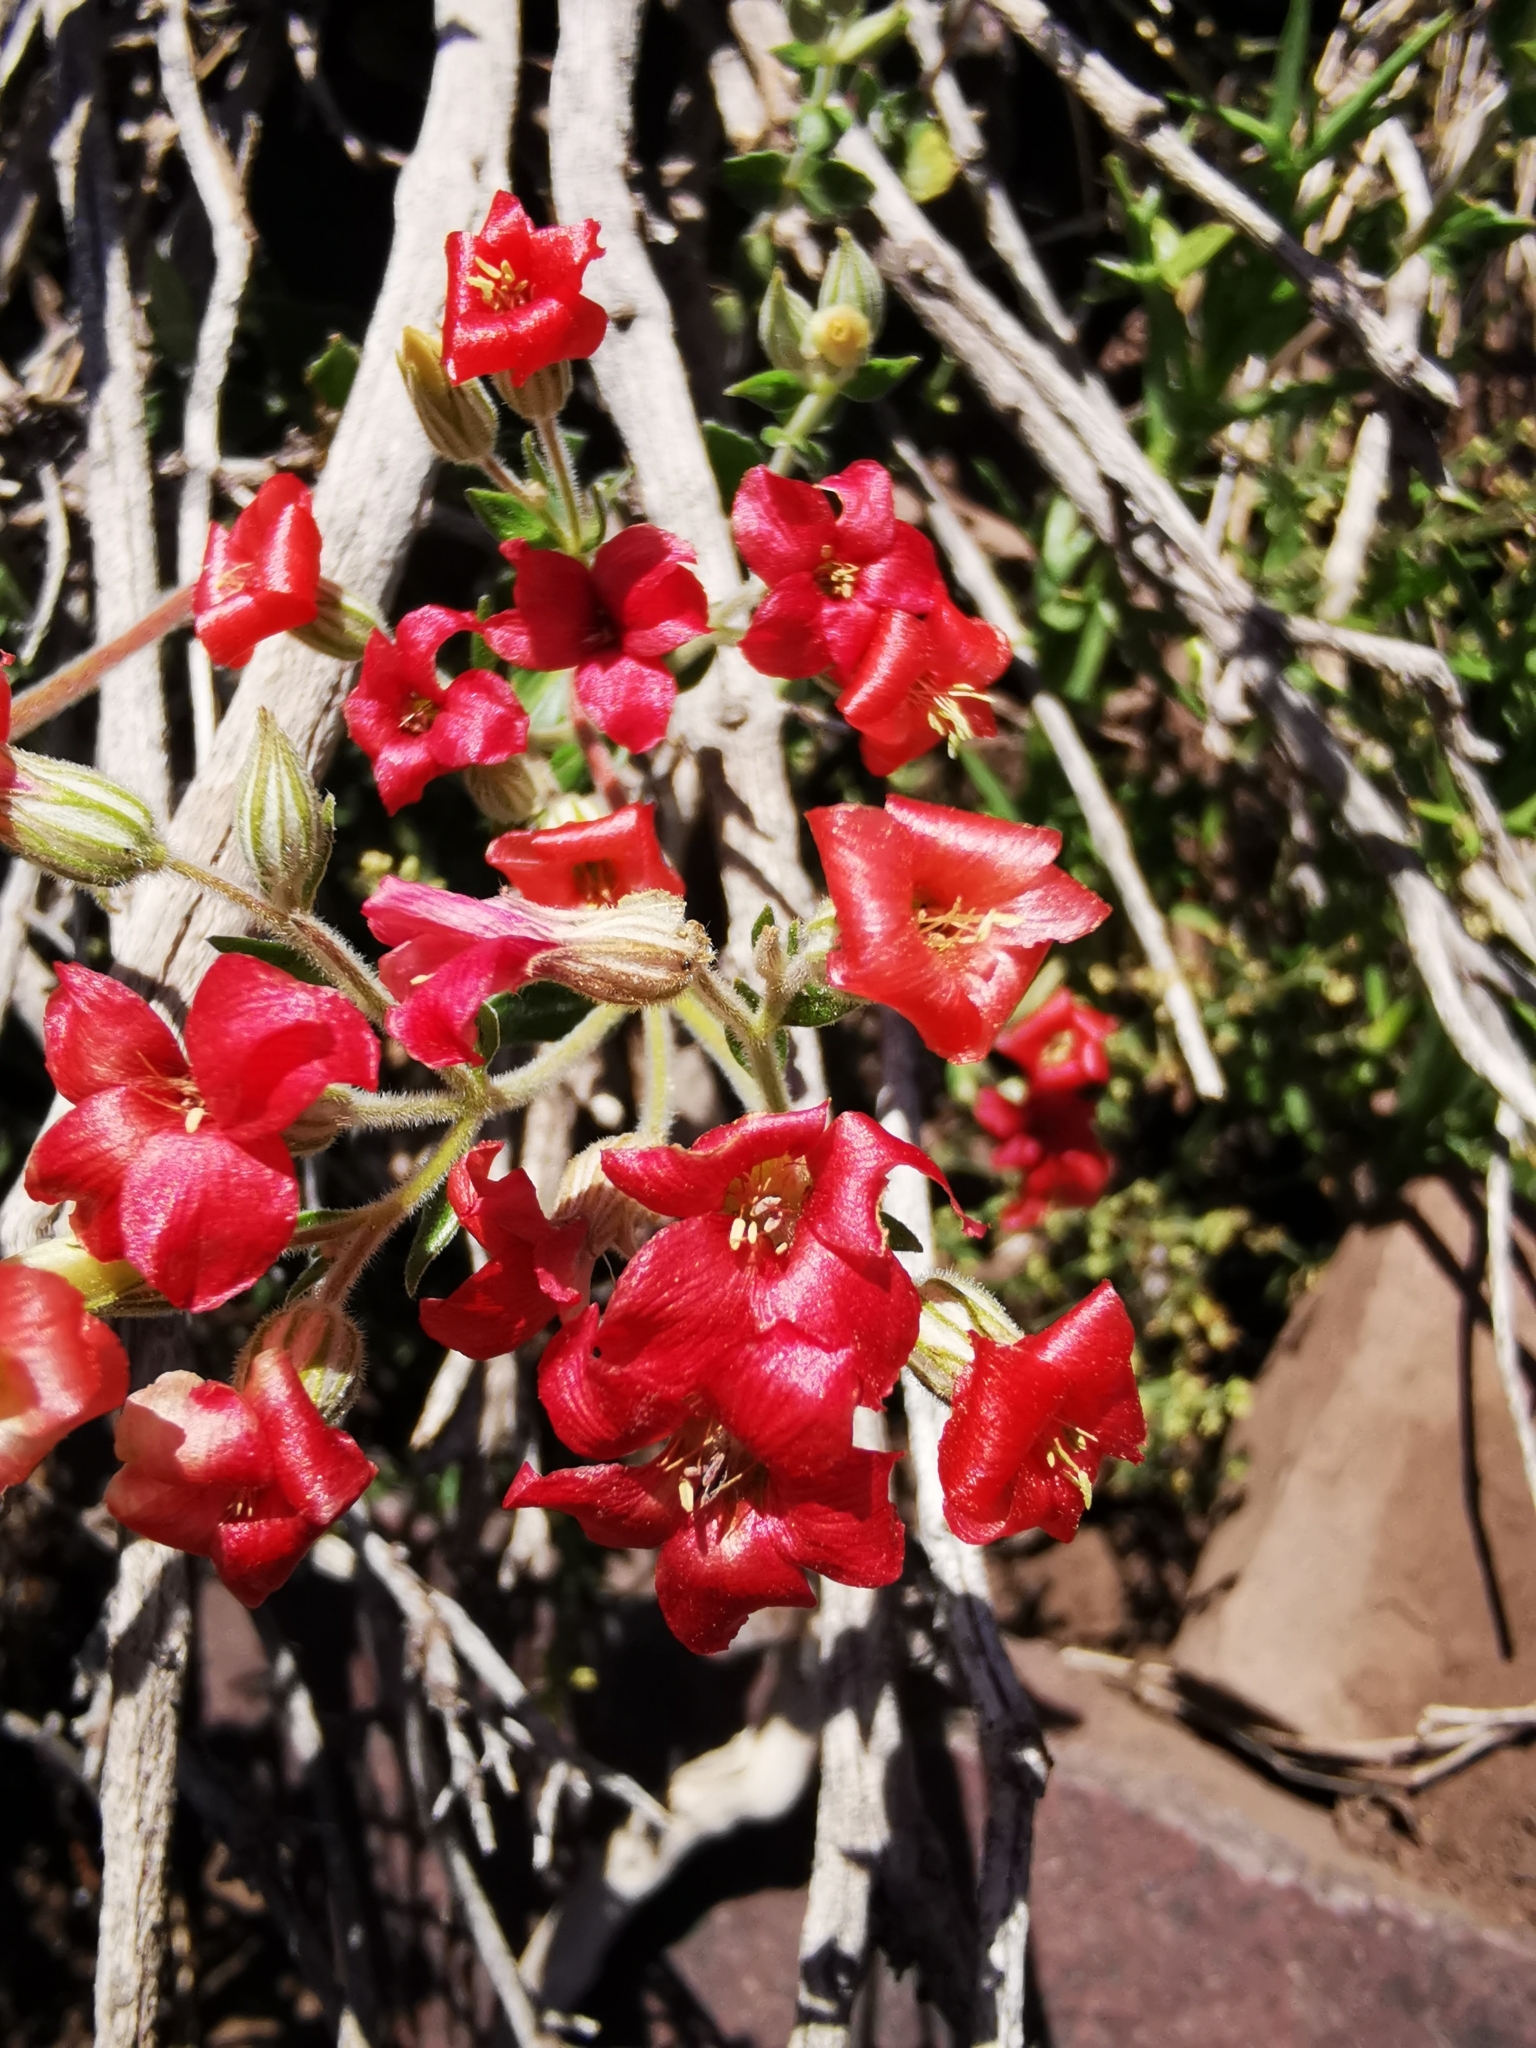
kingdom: Plantae
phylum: Tracheophyta
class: Magnoliopsida
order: Geraniales
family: Vivianiaceae
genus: Viviania
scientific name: Viviania marifolia
